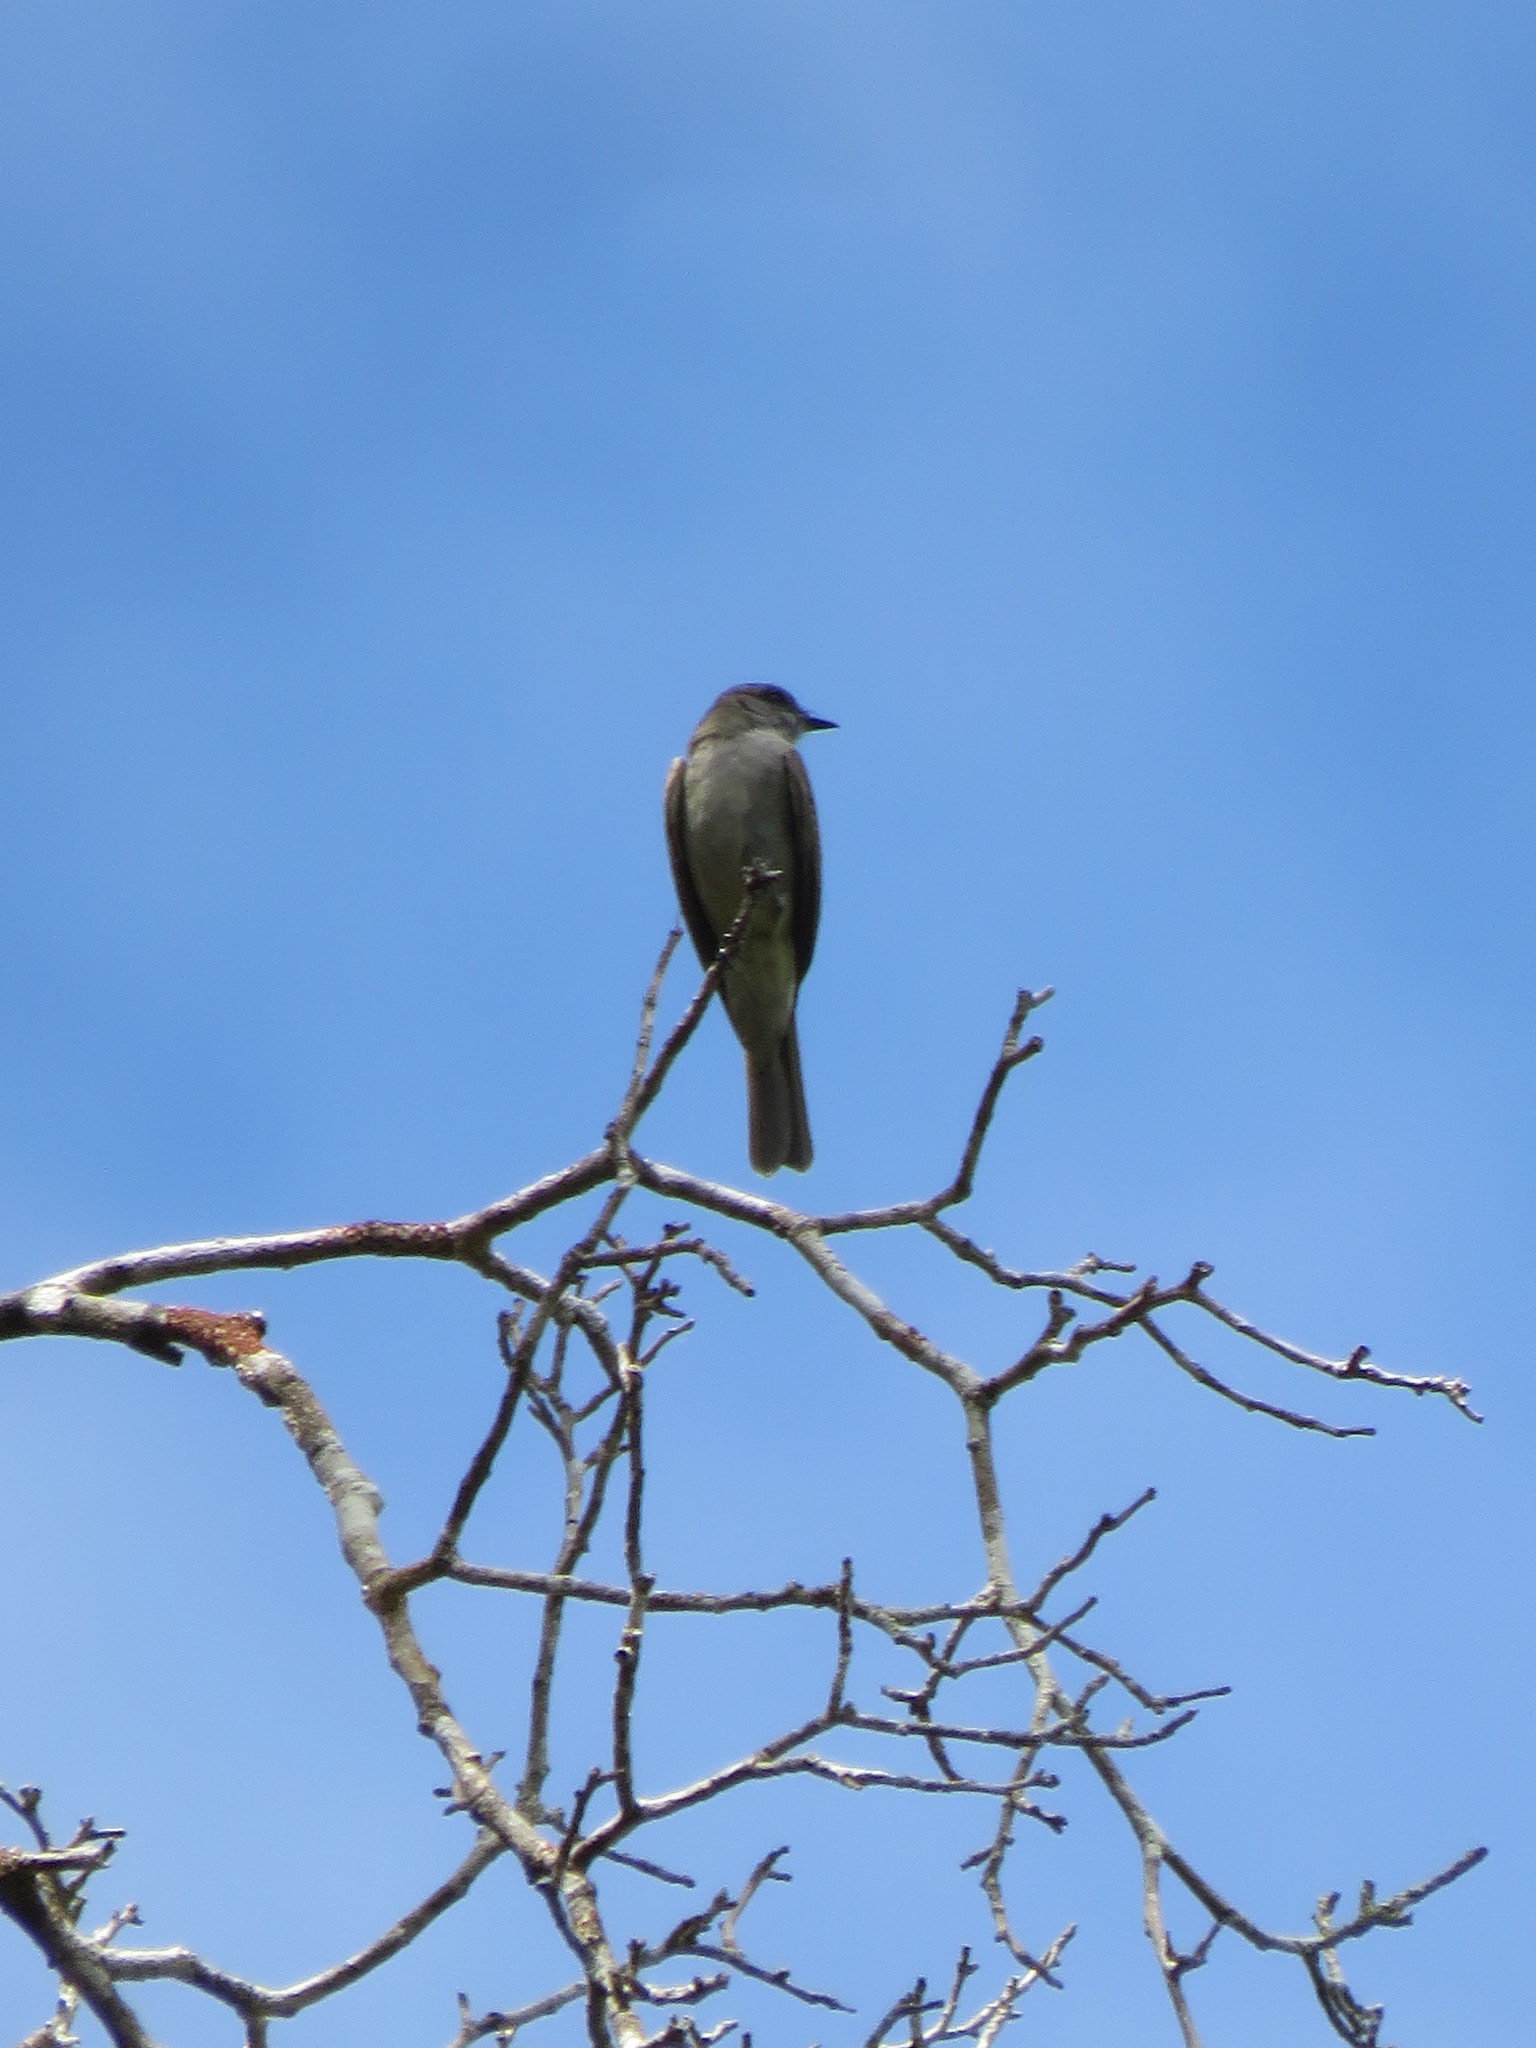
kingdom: Animalia
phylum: Chordata
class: Aves
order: Passeriformes
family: Tyrannidae
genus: Empidonomus
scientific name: Empidonomus aurantioatrocristatus
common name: Crowned slaty flycatcher
